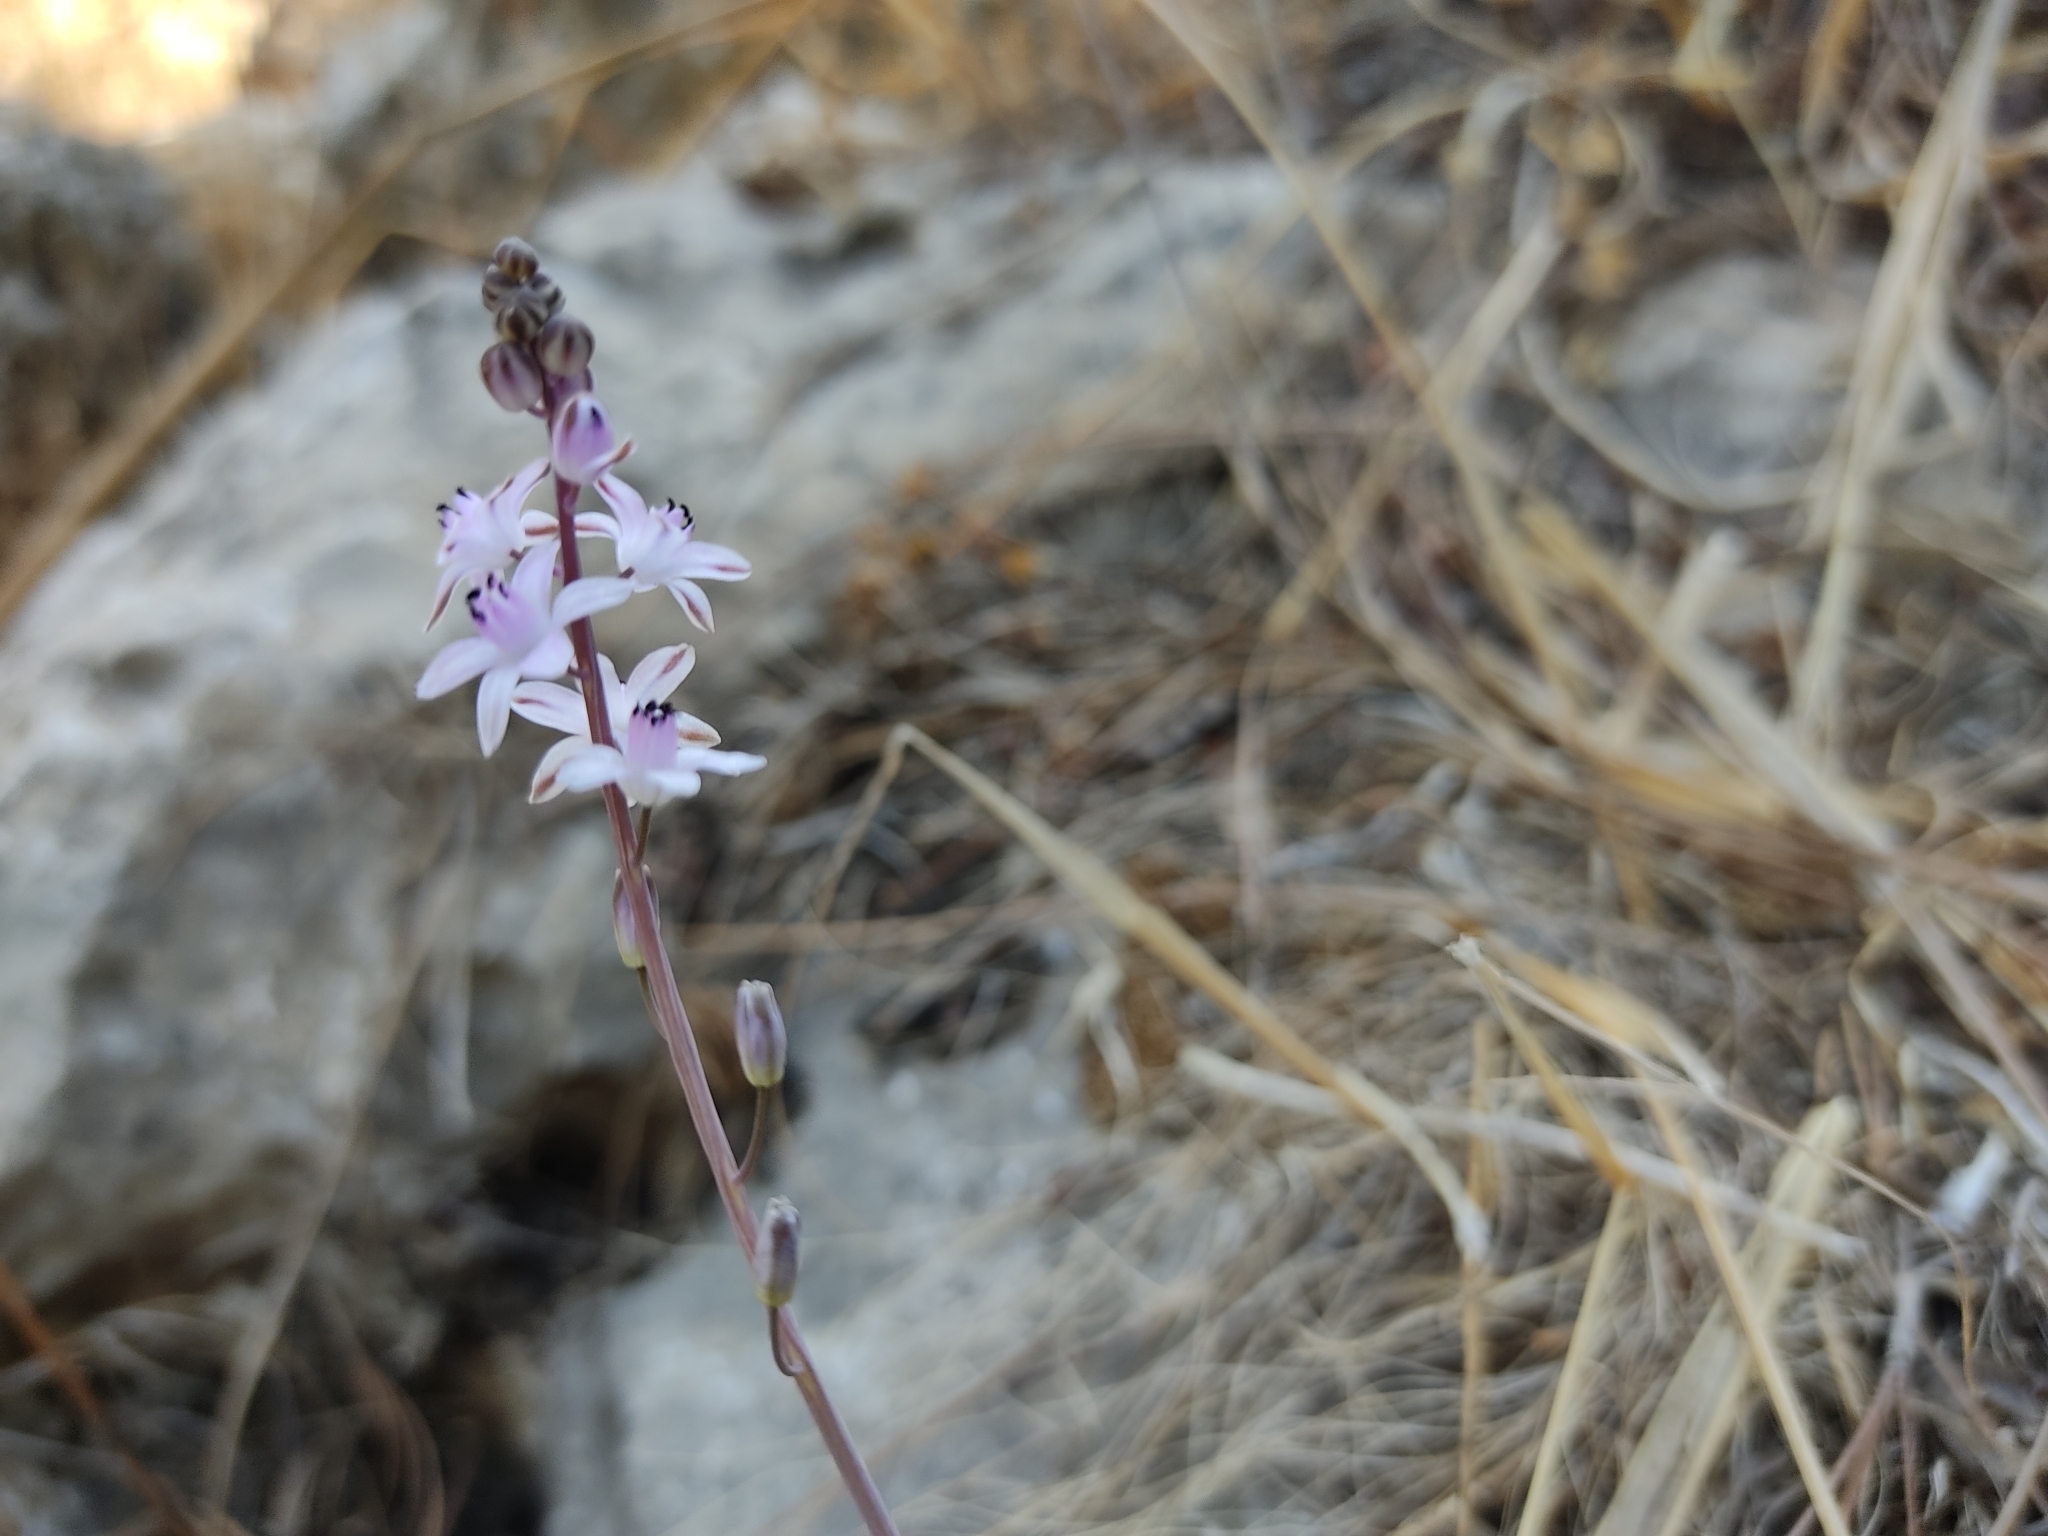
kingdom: Plantae
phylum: Tracheophyta
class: Liliopsida
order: Asparagales
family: Asparagaceae
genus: Prospero
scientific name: Prospero autumnale
